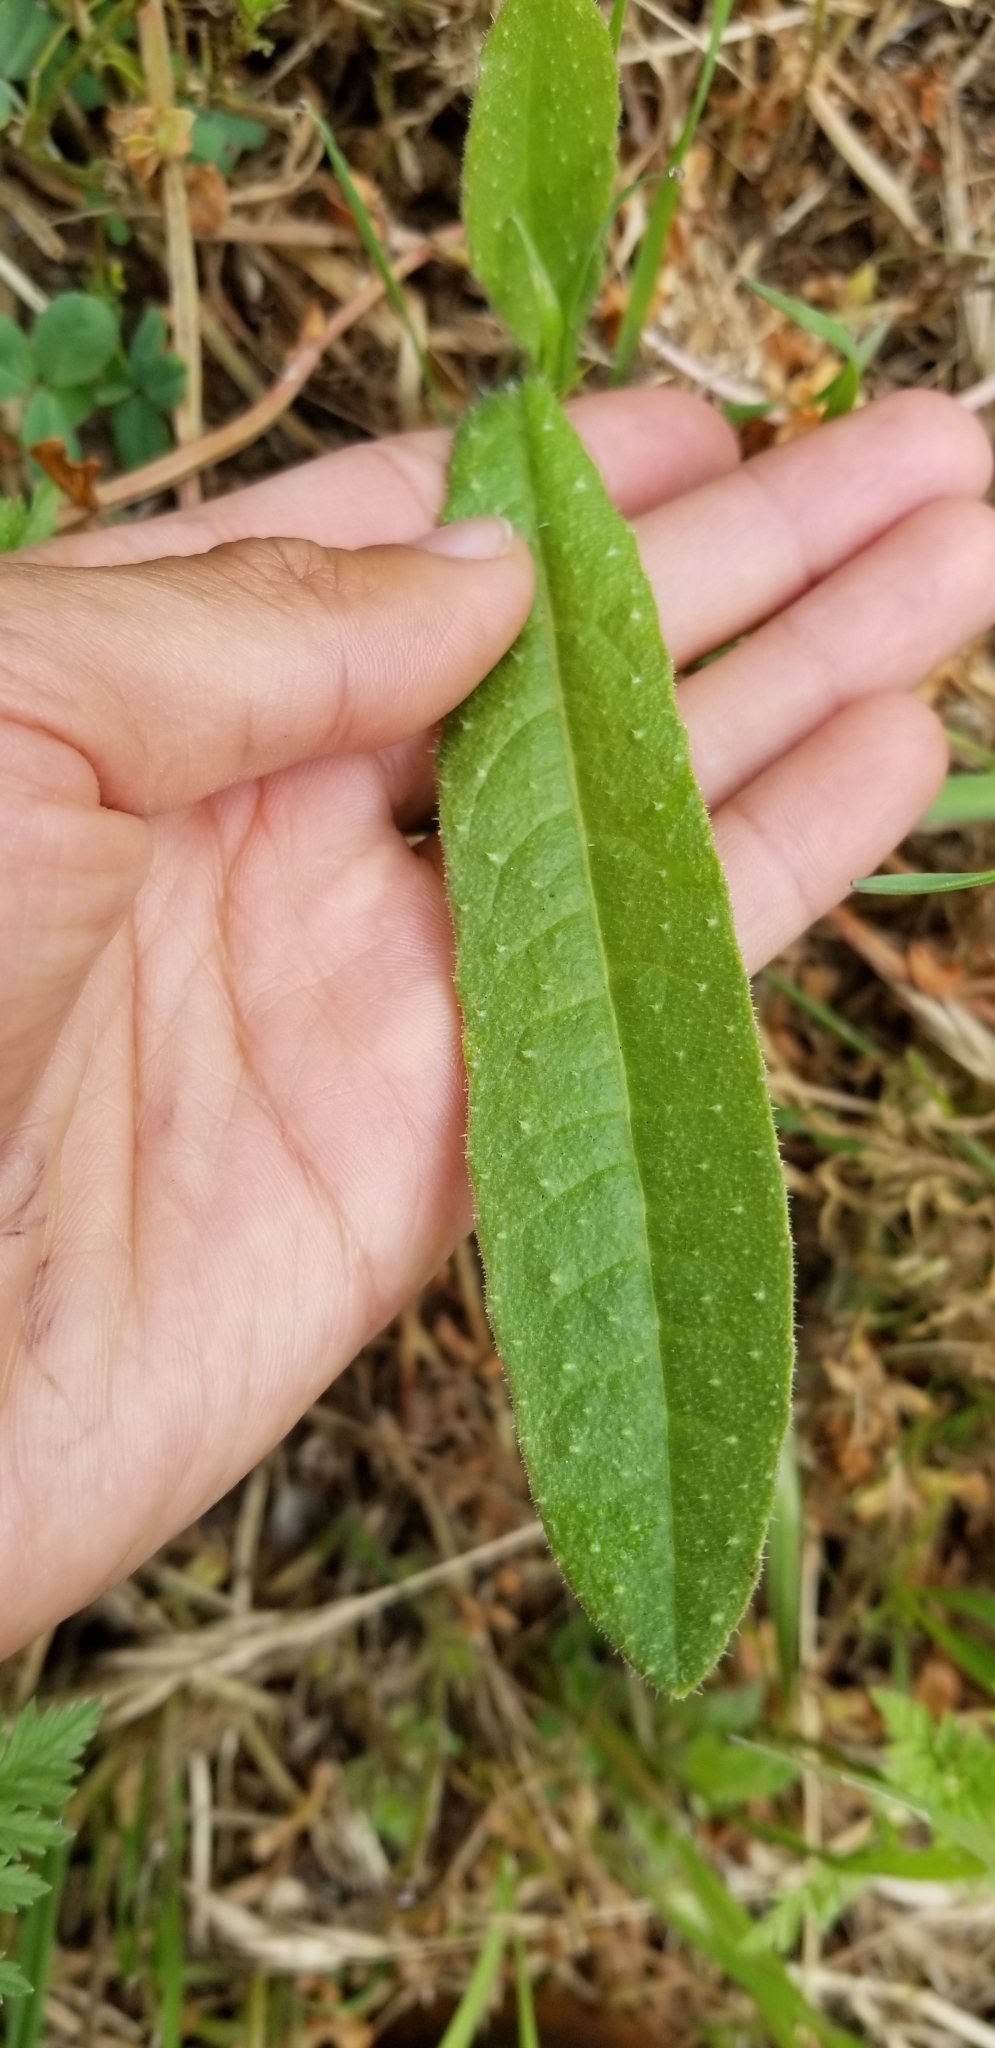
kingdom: Plantae
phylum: Tracheophyta
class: Magnoliopsida
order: Asterales
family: Asteraceae
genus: Helminthotheca
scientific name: Helminthotheca echioides
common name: Ox-tongue
